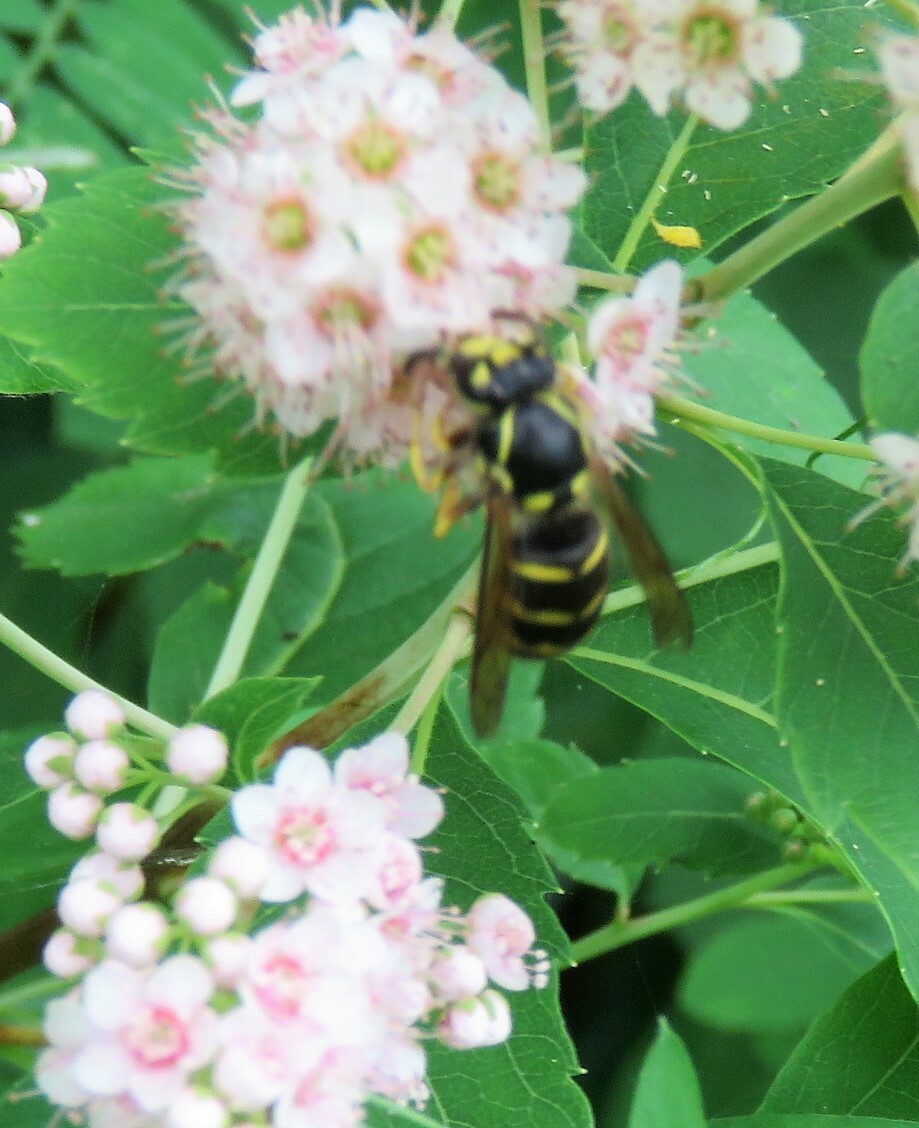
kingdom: Animalia
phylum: Arthropoda
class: Insecta
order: Hymenoptera
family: Vespidae
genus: Dolichovespula
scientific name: Dolichovespula arenaria
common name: Aerial yellowjacket
